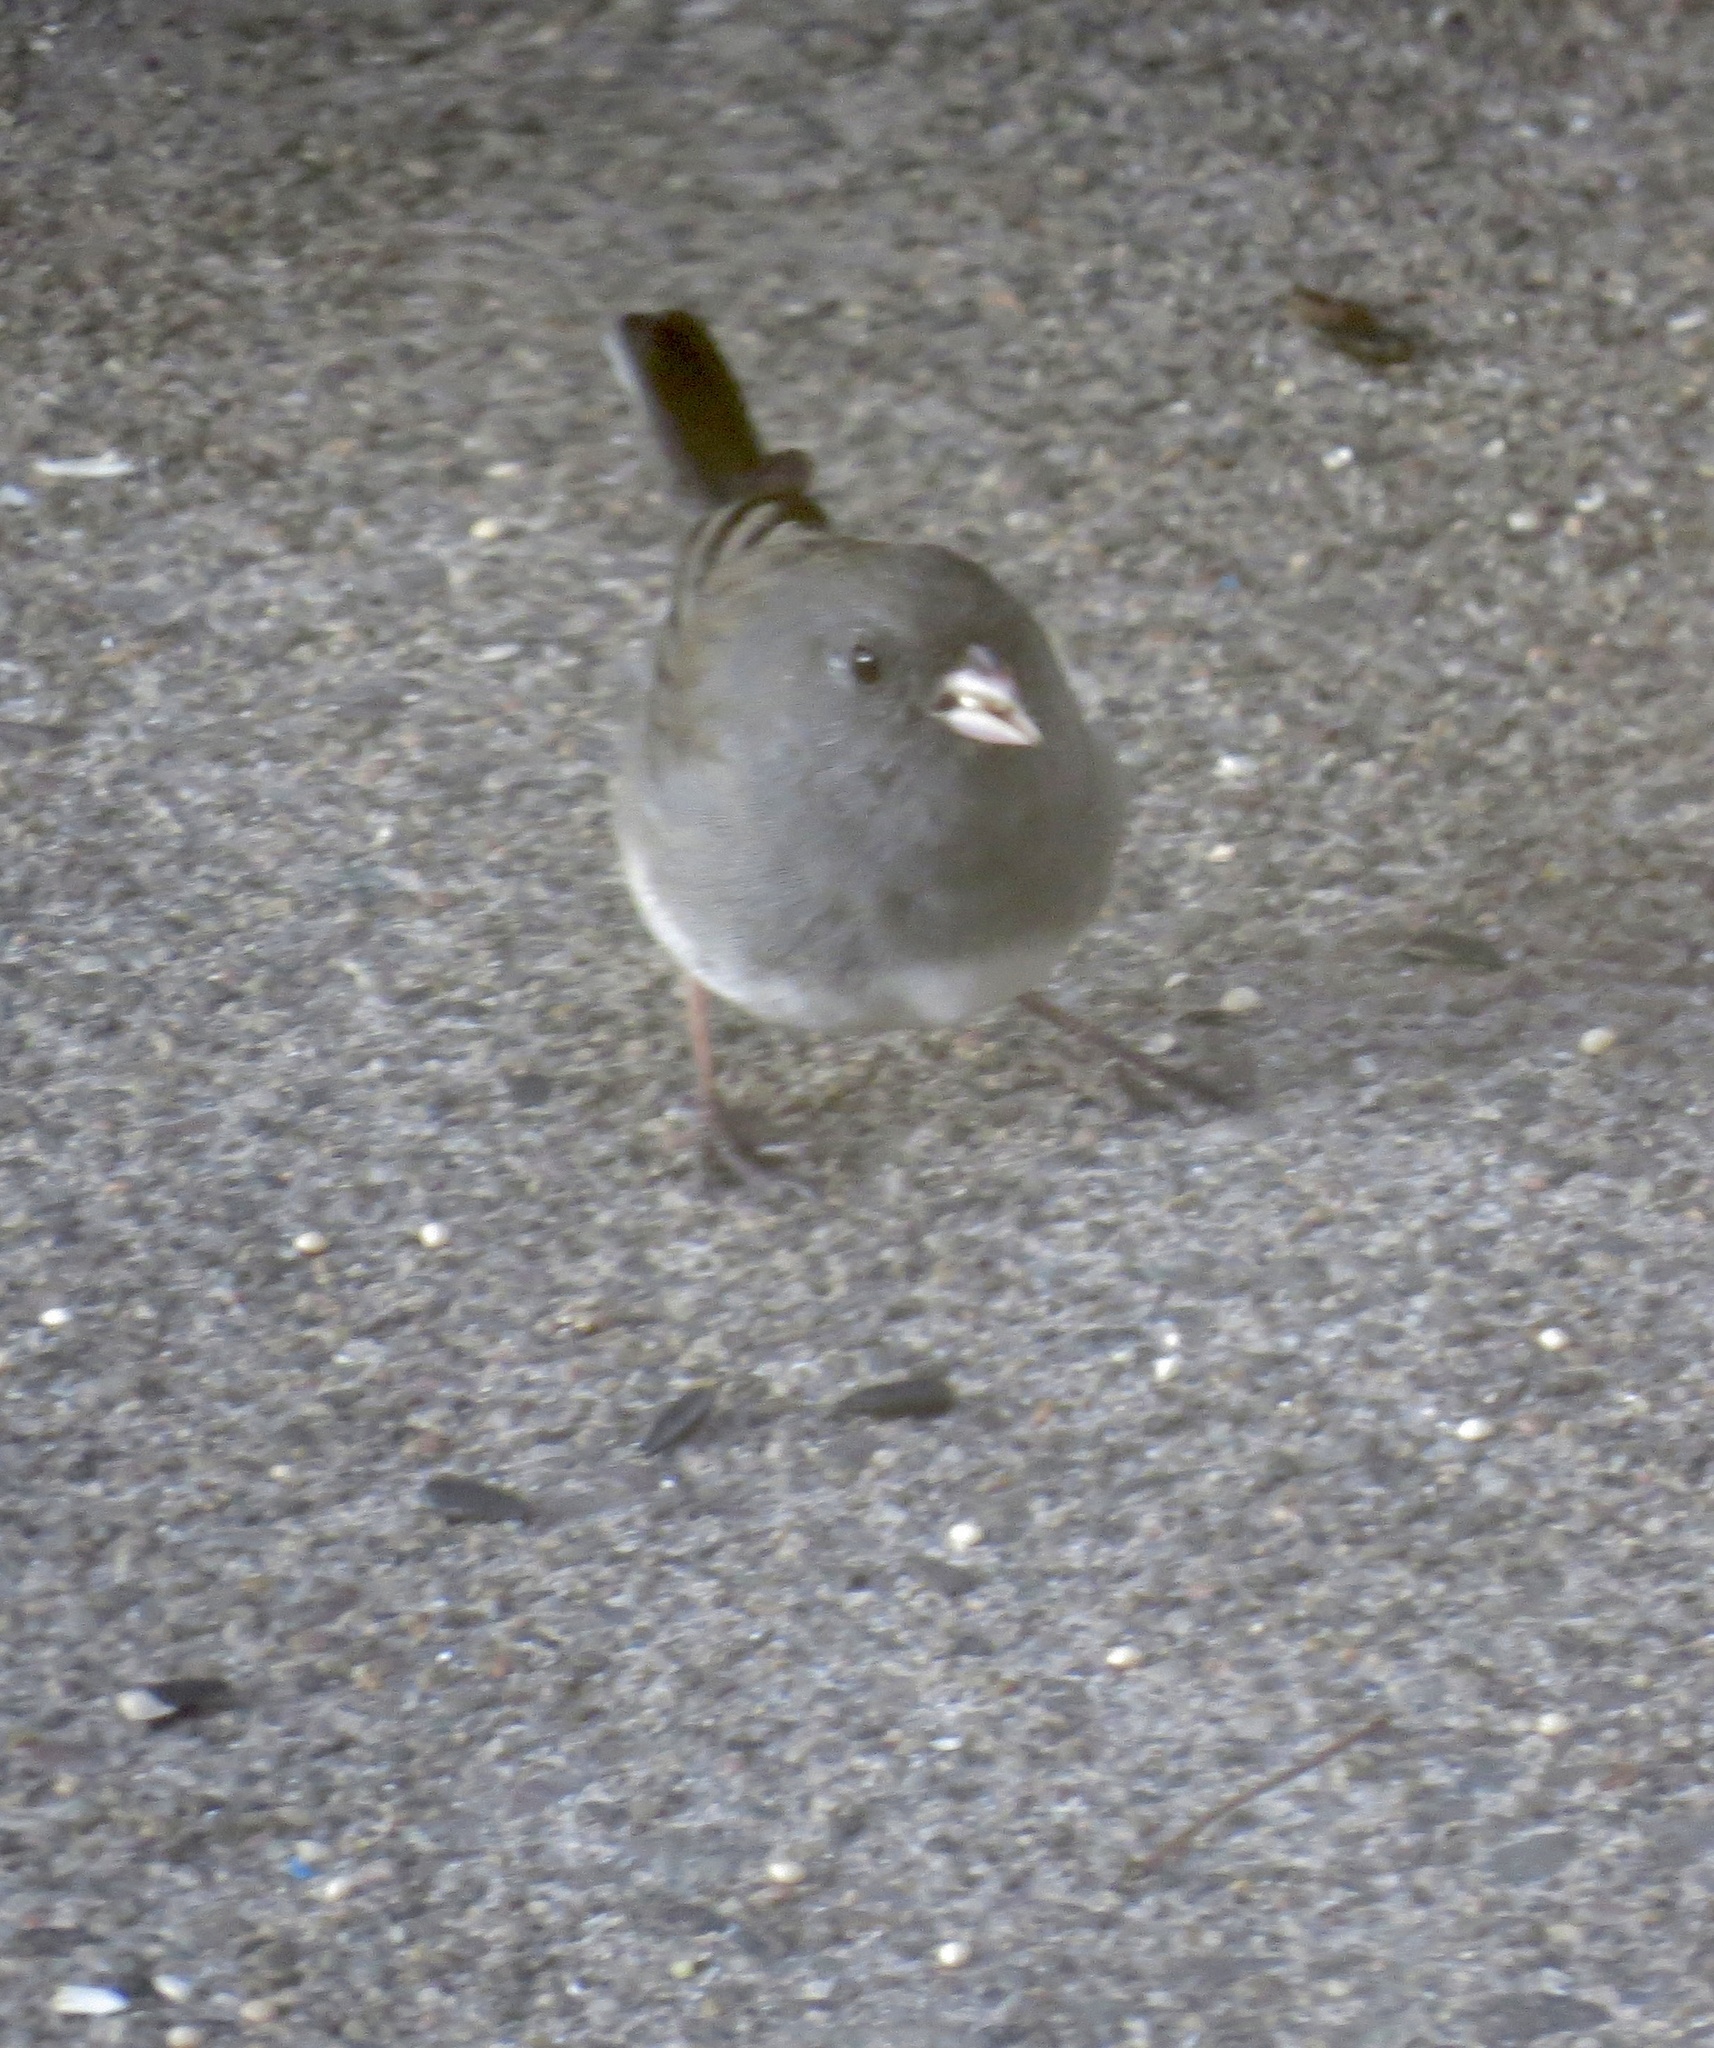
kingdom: Animalia
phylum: Chordata
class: Aves
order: Passeriformes
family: Passerellidae
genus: Junco
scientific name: Junco hyemalis
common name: Dark-eyed junco
